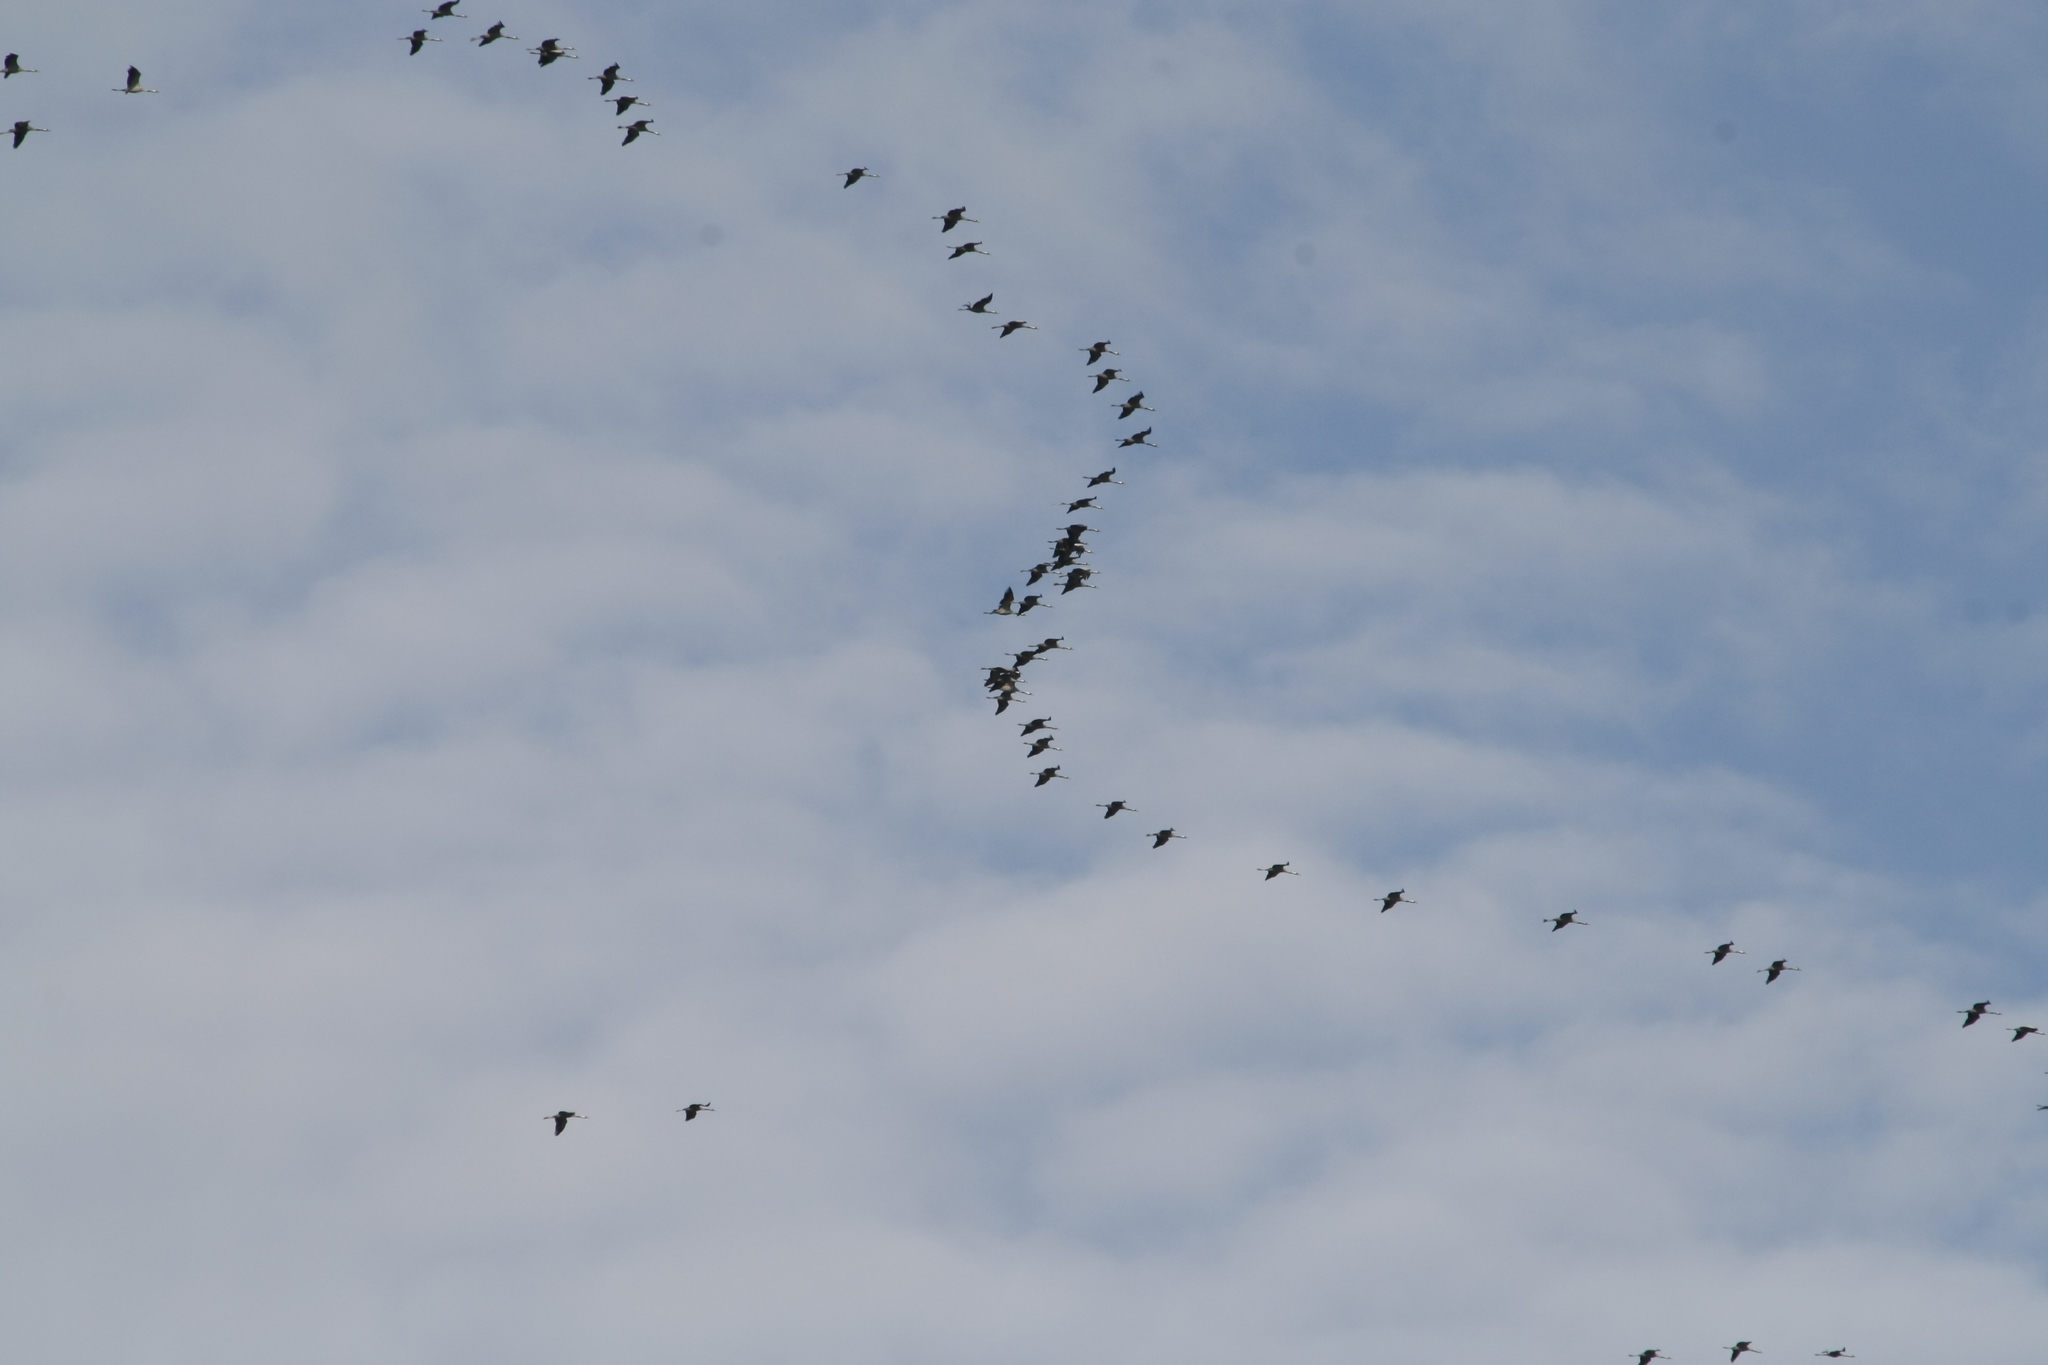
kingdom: Animalia
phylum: Chordata
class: Aves
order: Gruiformes
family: Gruidae
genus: Grus
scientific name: Grus grus
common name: Common crane
